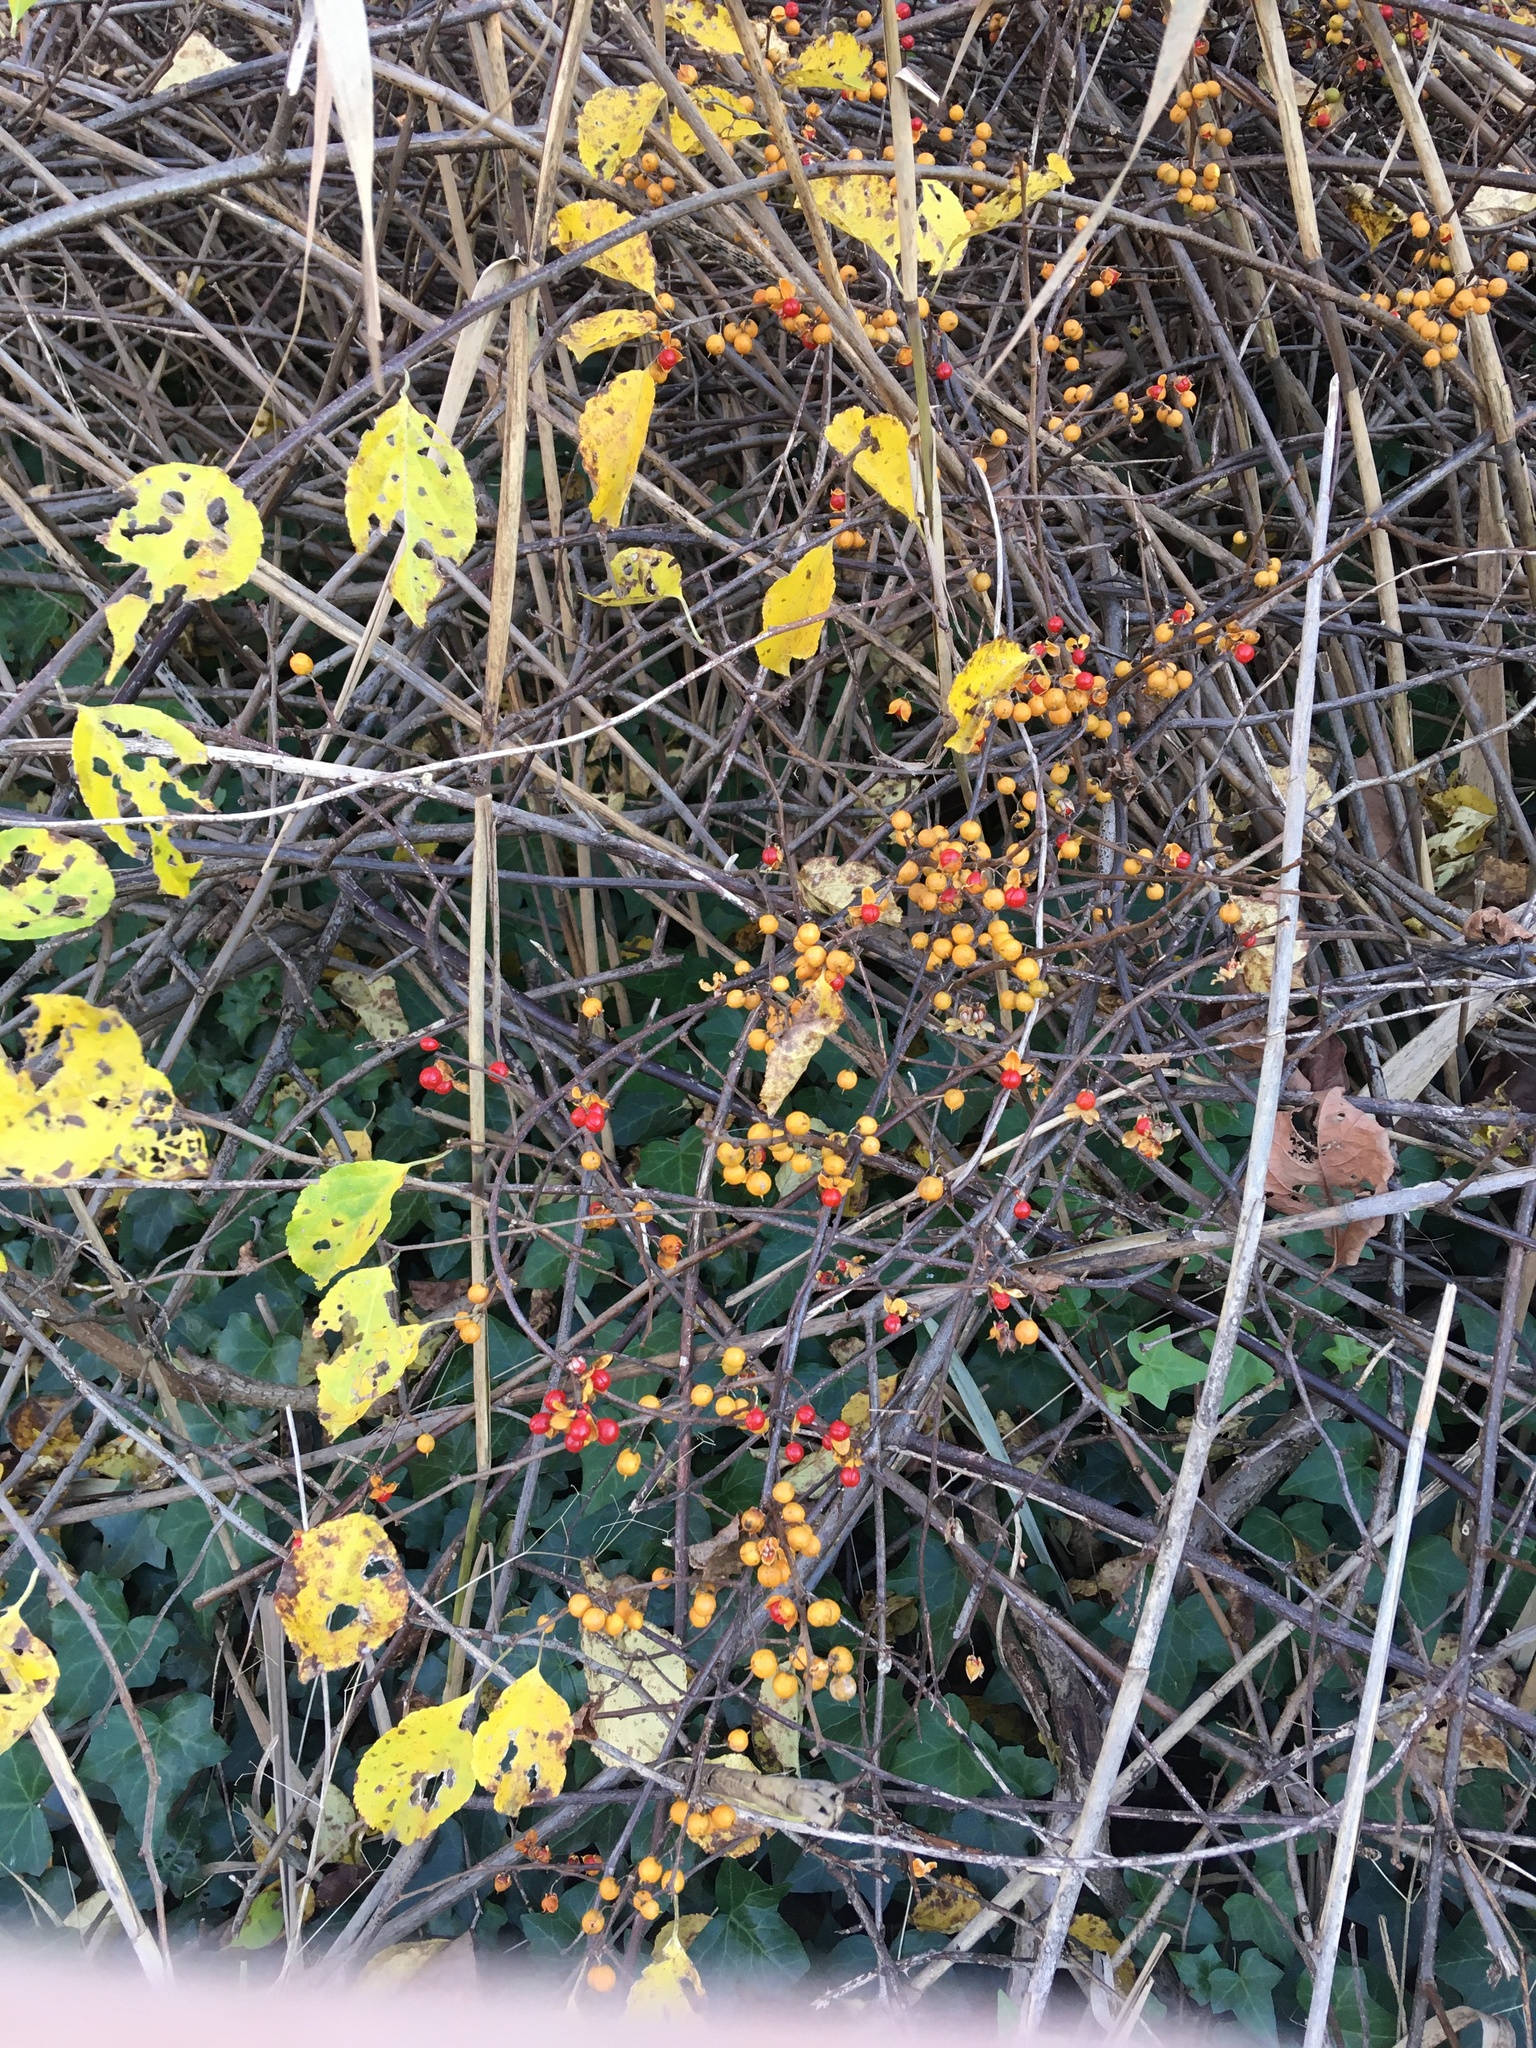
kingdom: Plantae
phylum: Tracheophyta
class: Magnoliopsida
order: Celastrales
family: Celastraceae
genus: Celastrus
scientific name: Celastrus orbiculatus
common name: Oriental bittersweet
